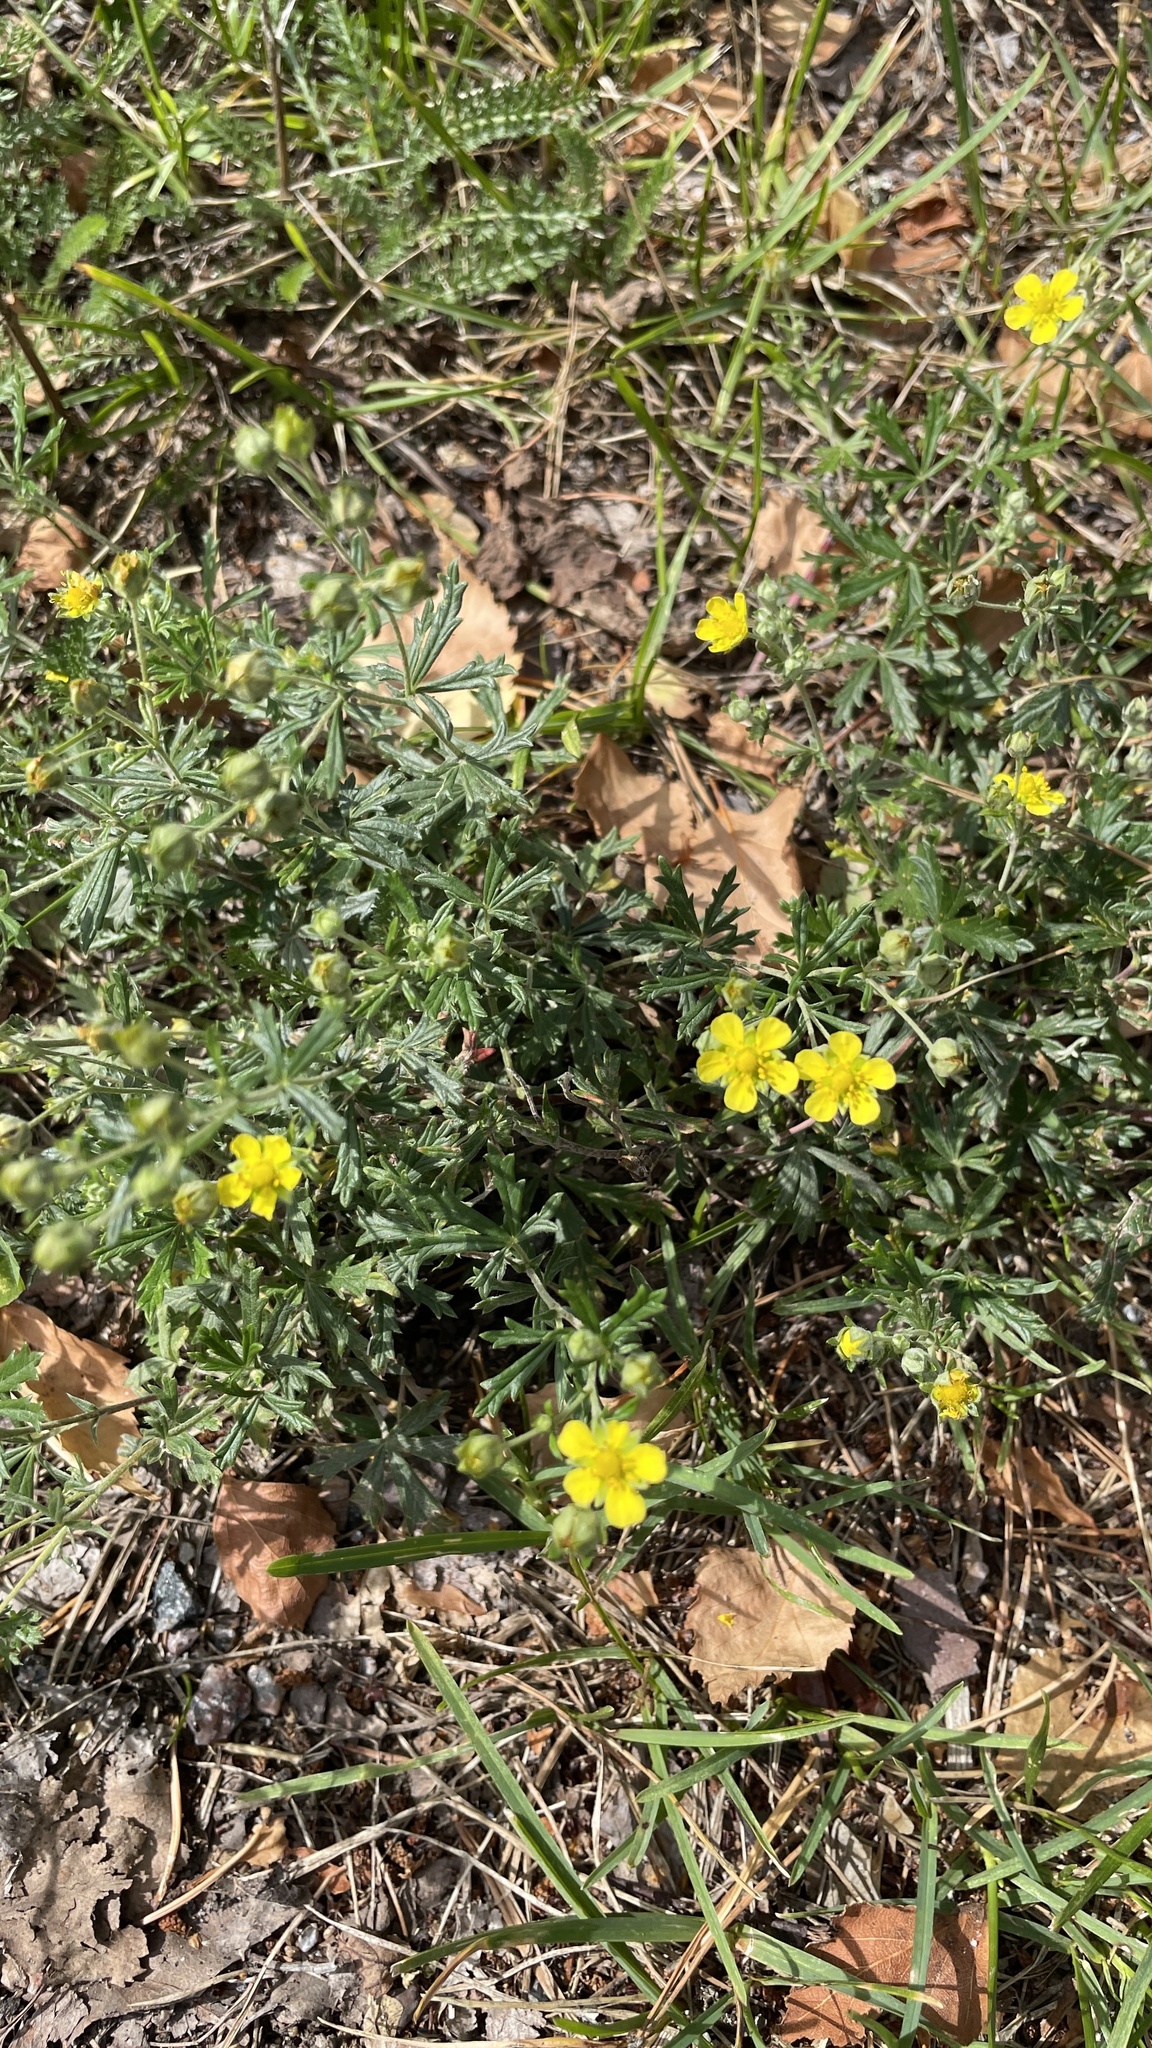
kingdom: Plantae
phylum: Tracheophyta
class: Magnoliopsida
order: Rosales
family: Rosaceae
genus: Potentilla
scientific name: Potentilla argentea
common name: Hoary cinquefoil
